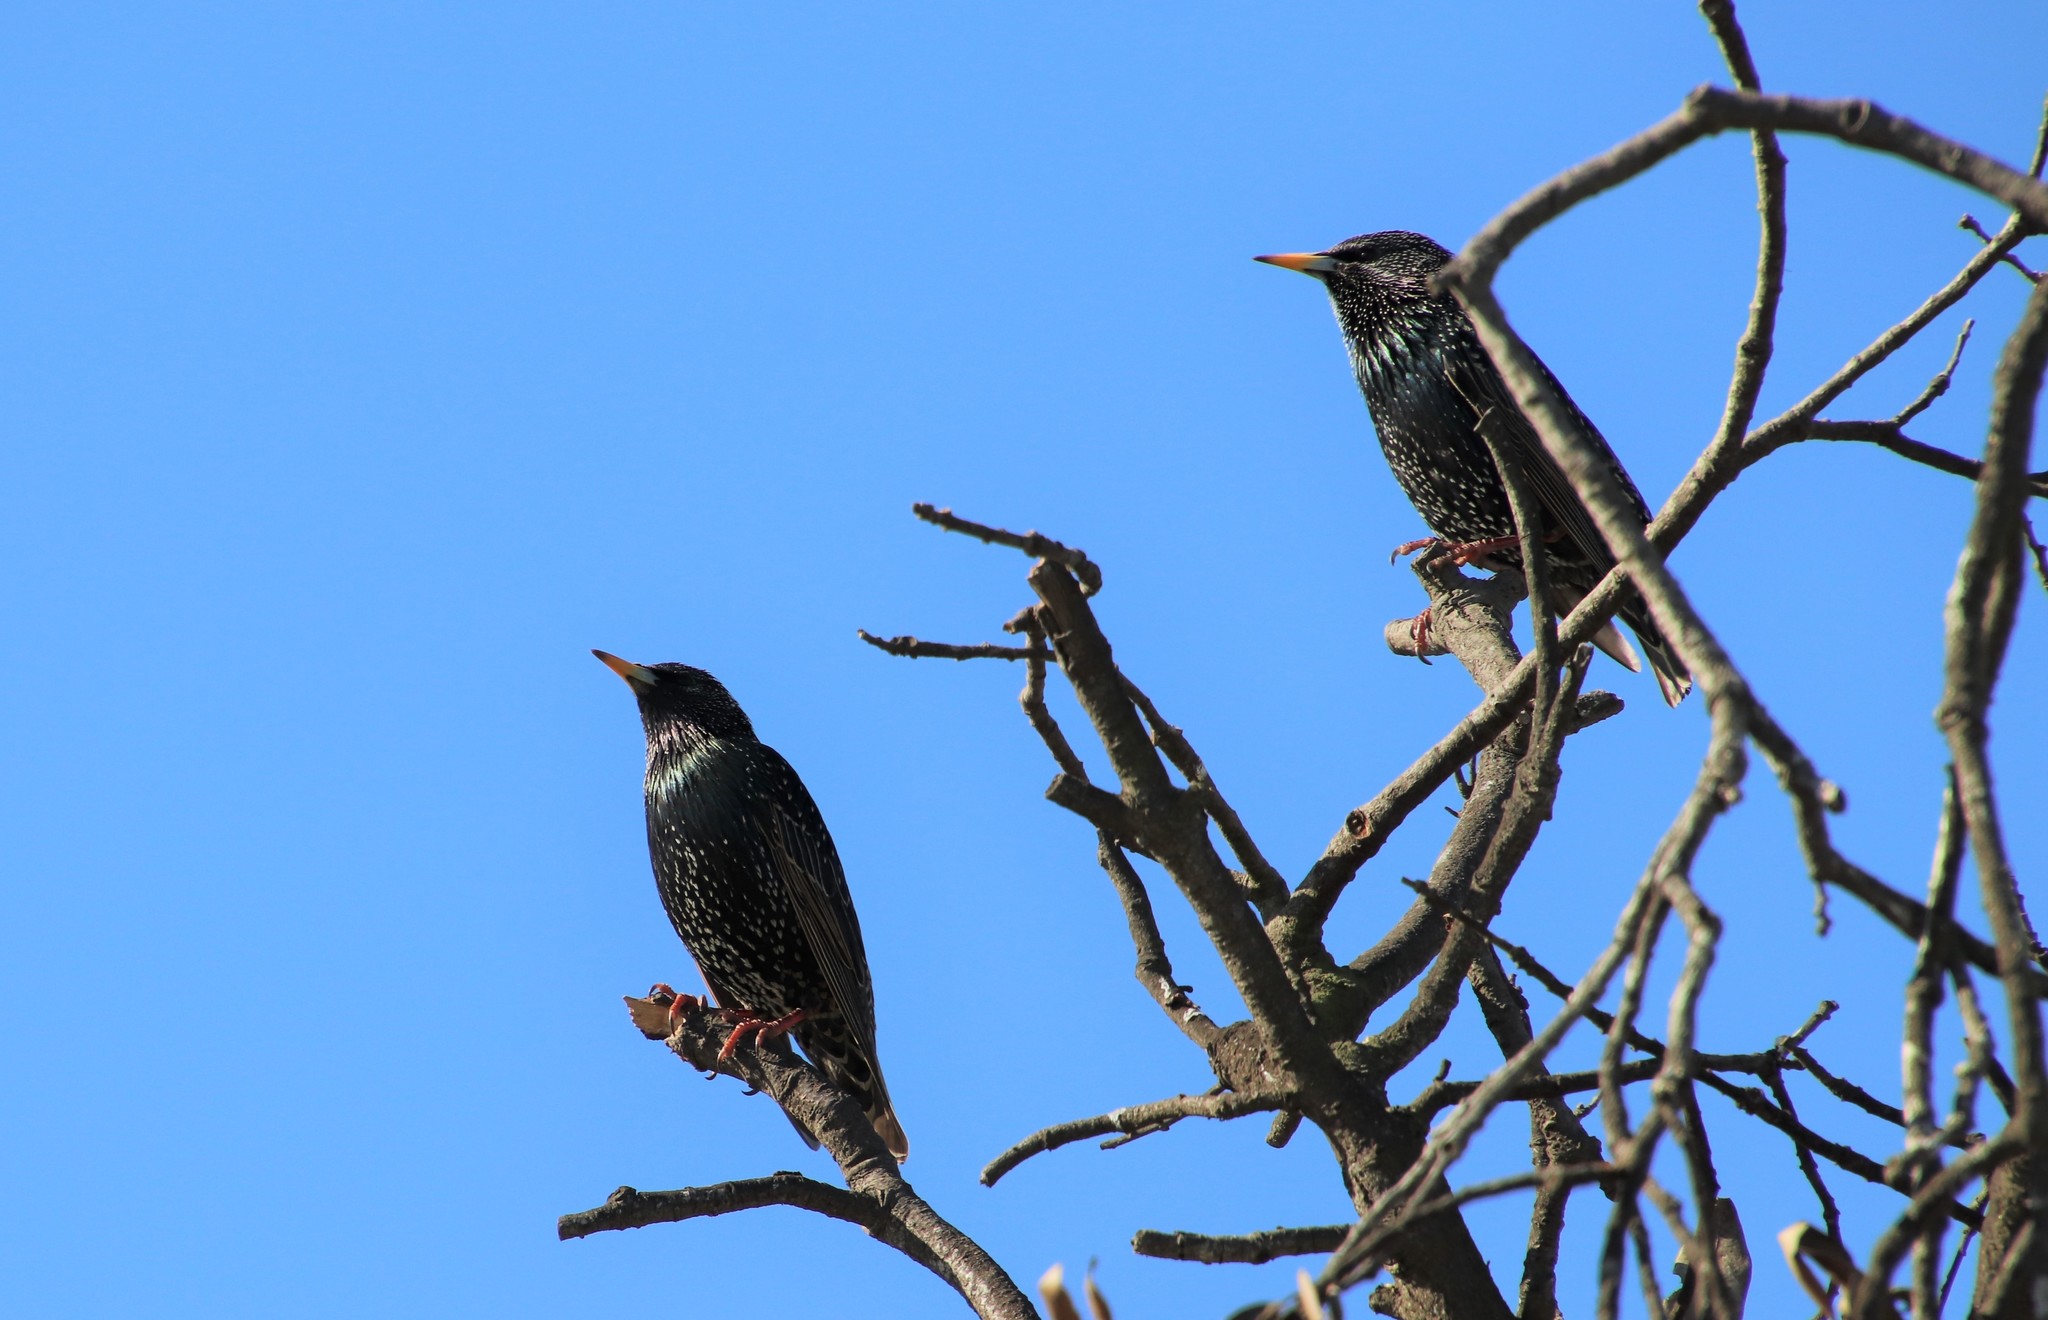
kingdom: Animalia
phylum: Chordata
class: Aves
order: Passeriformes
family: Sturnidae
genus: Sturnus
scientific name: Sturnus vulgaris
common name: Common starling
